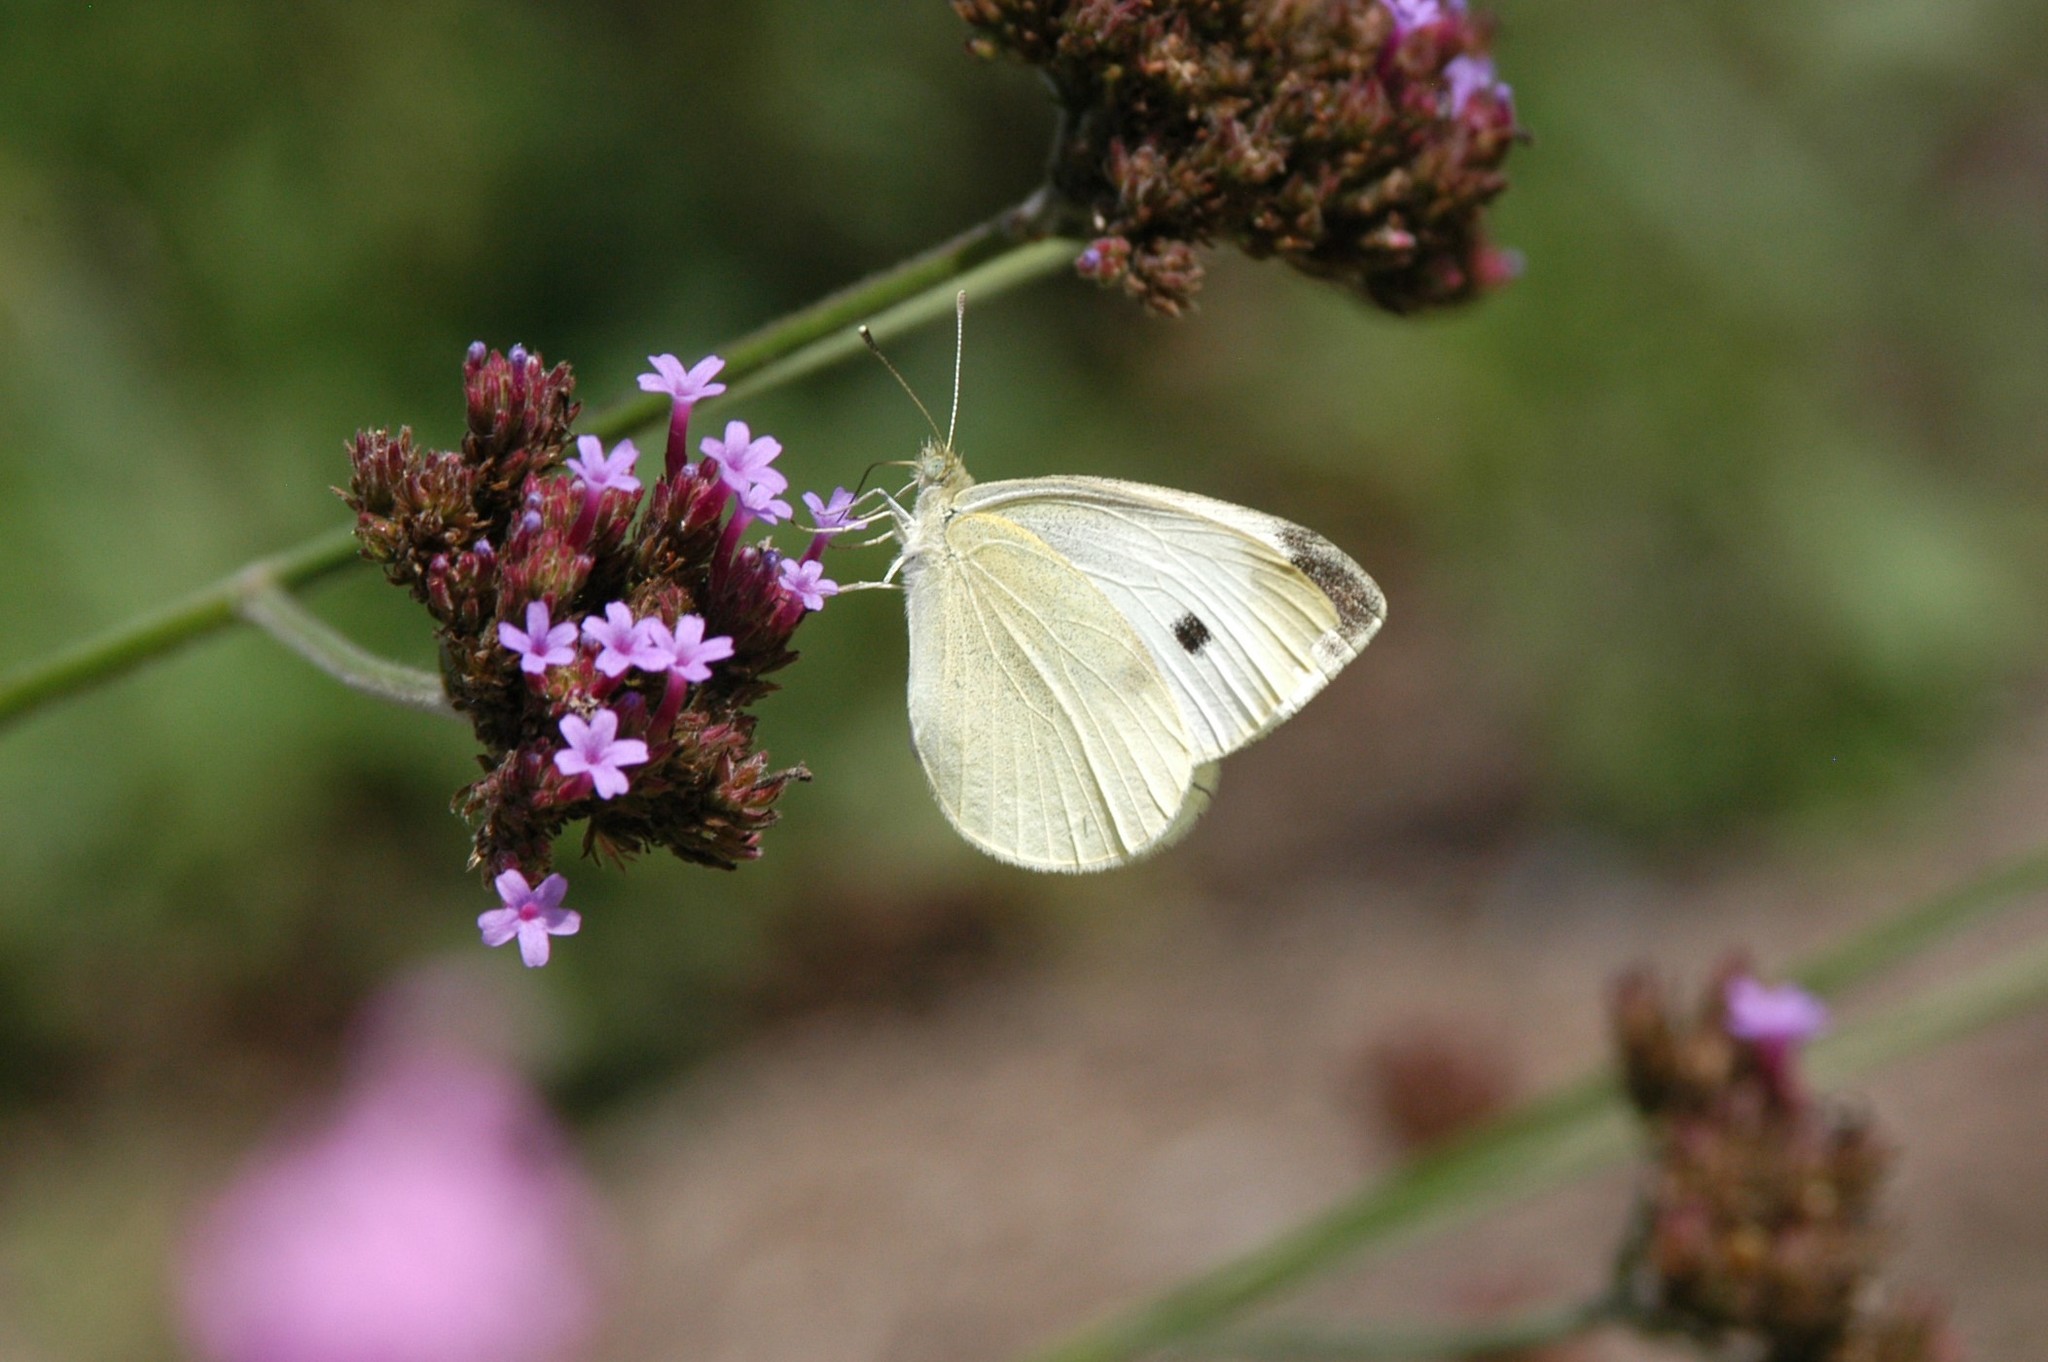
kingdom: Animalia
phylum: Arthropoda
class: Insecta
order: Lepidoptera
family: Pieridae
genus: Pieris
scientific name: Pieris rapae
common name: Small white
